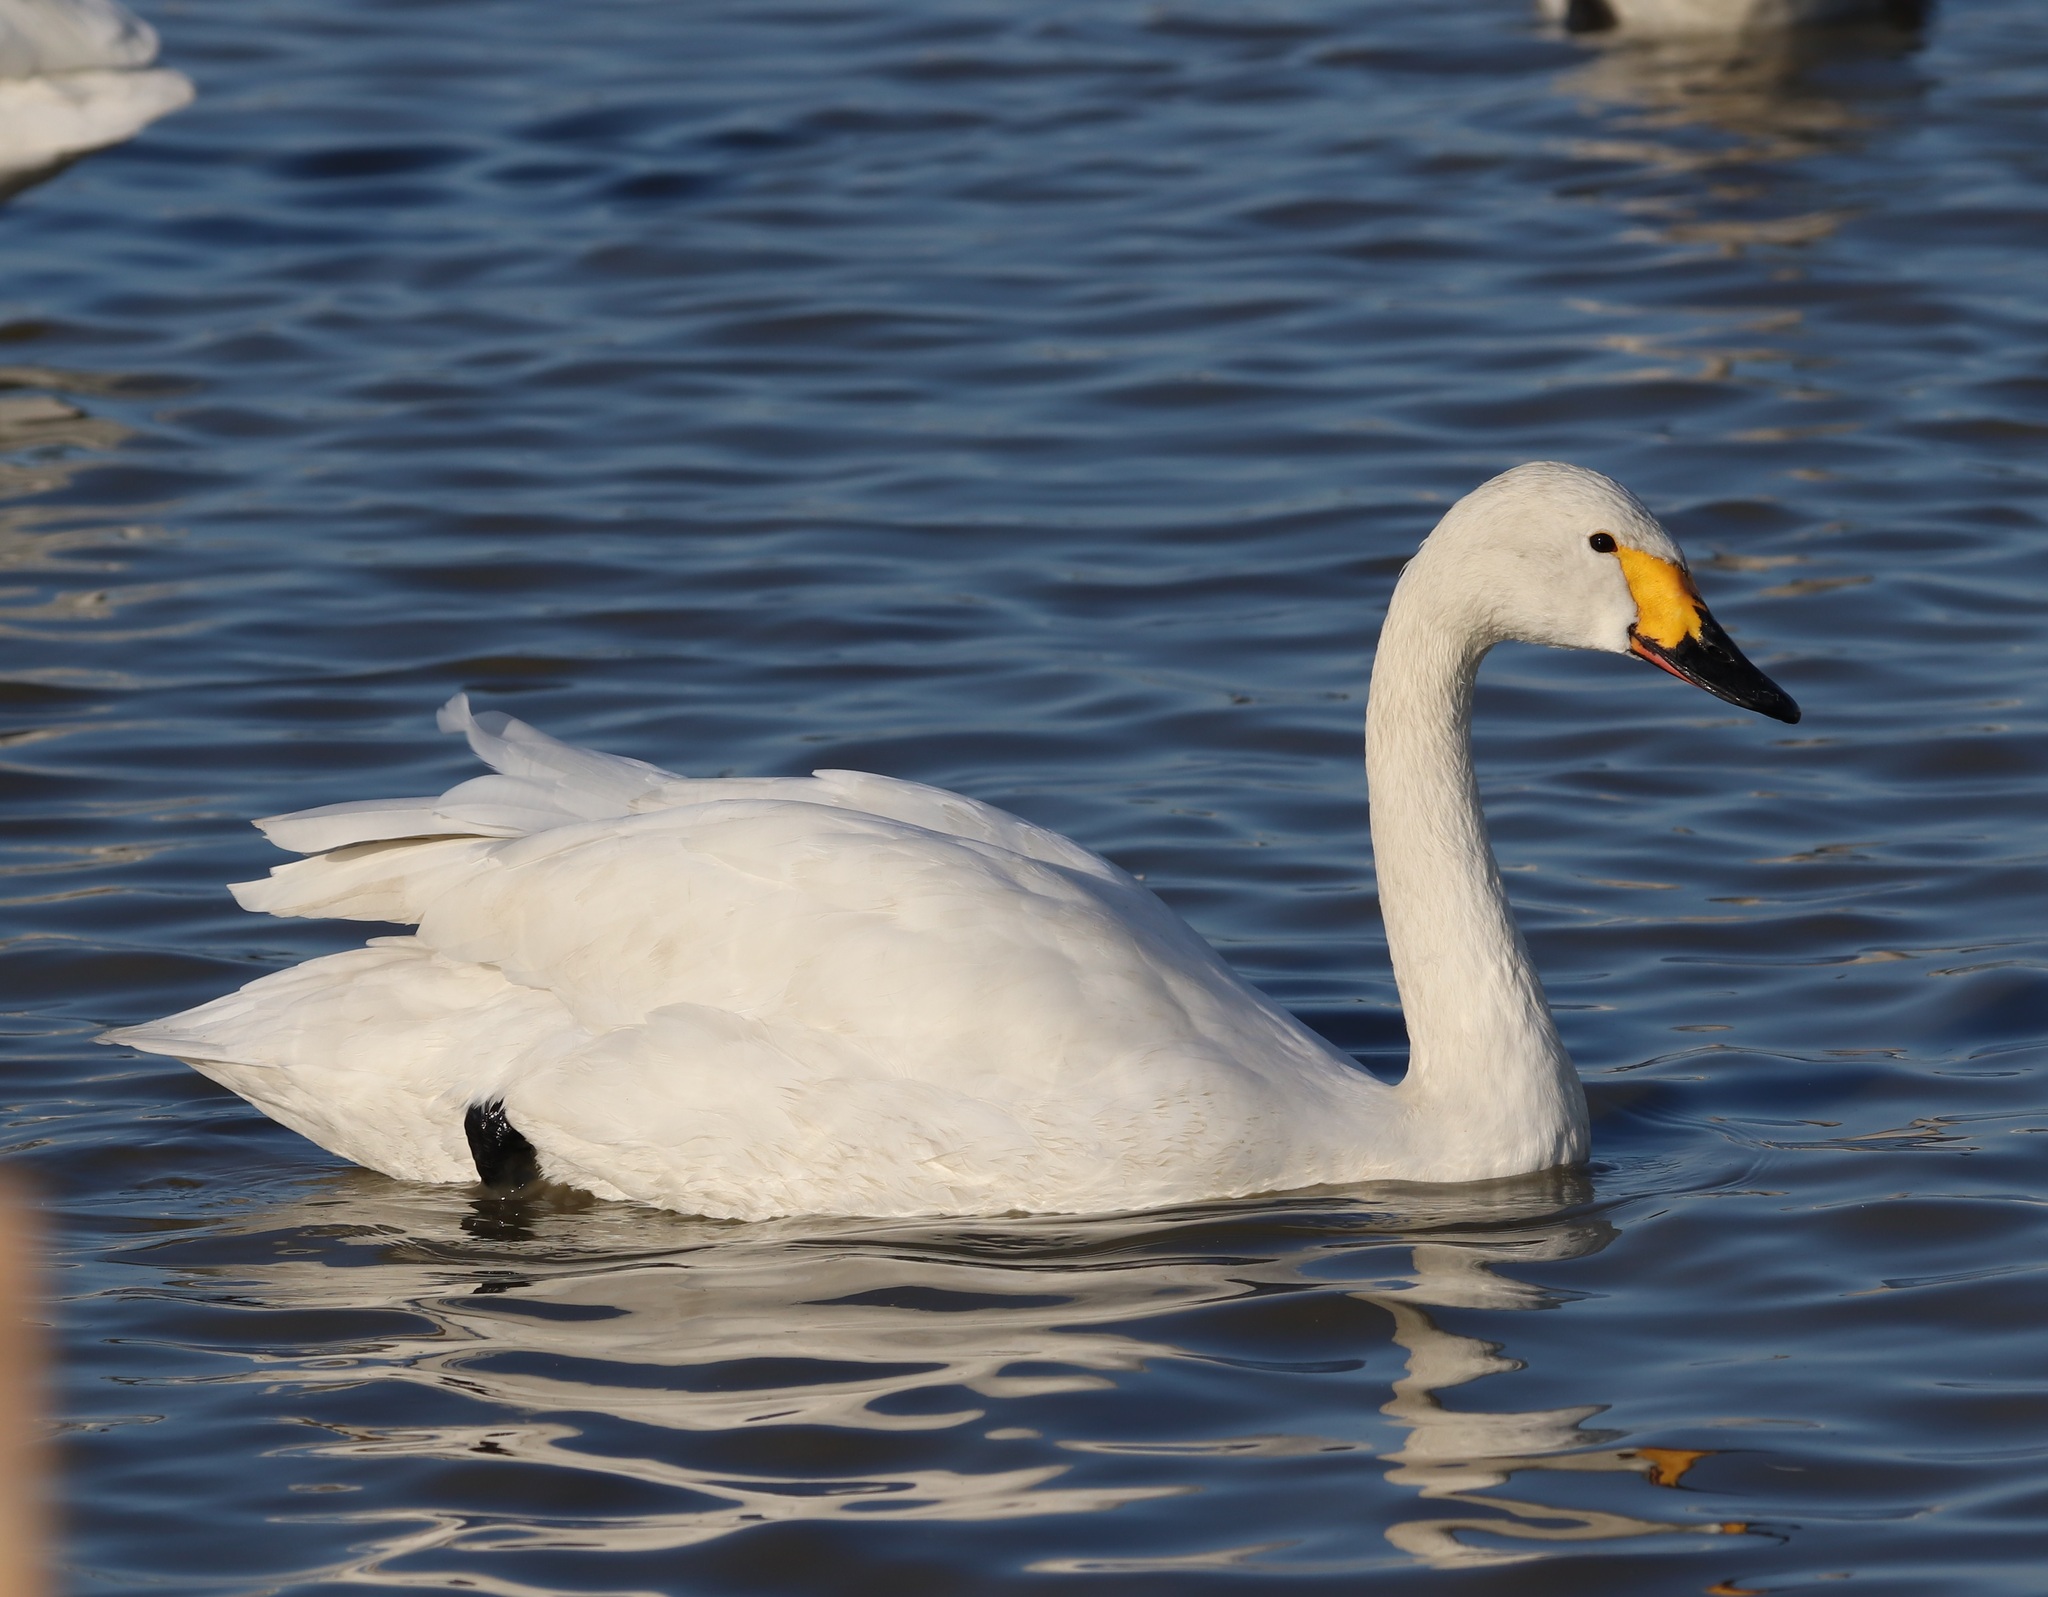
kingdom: Animalia
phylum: Chordata
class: Aves
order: Anseriformes
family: Anatidae
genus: Cygnus
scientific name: Cygnus columbianus
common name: Tundra swan
